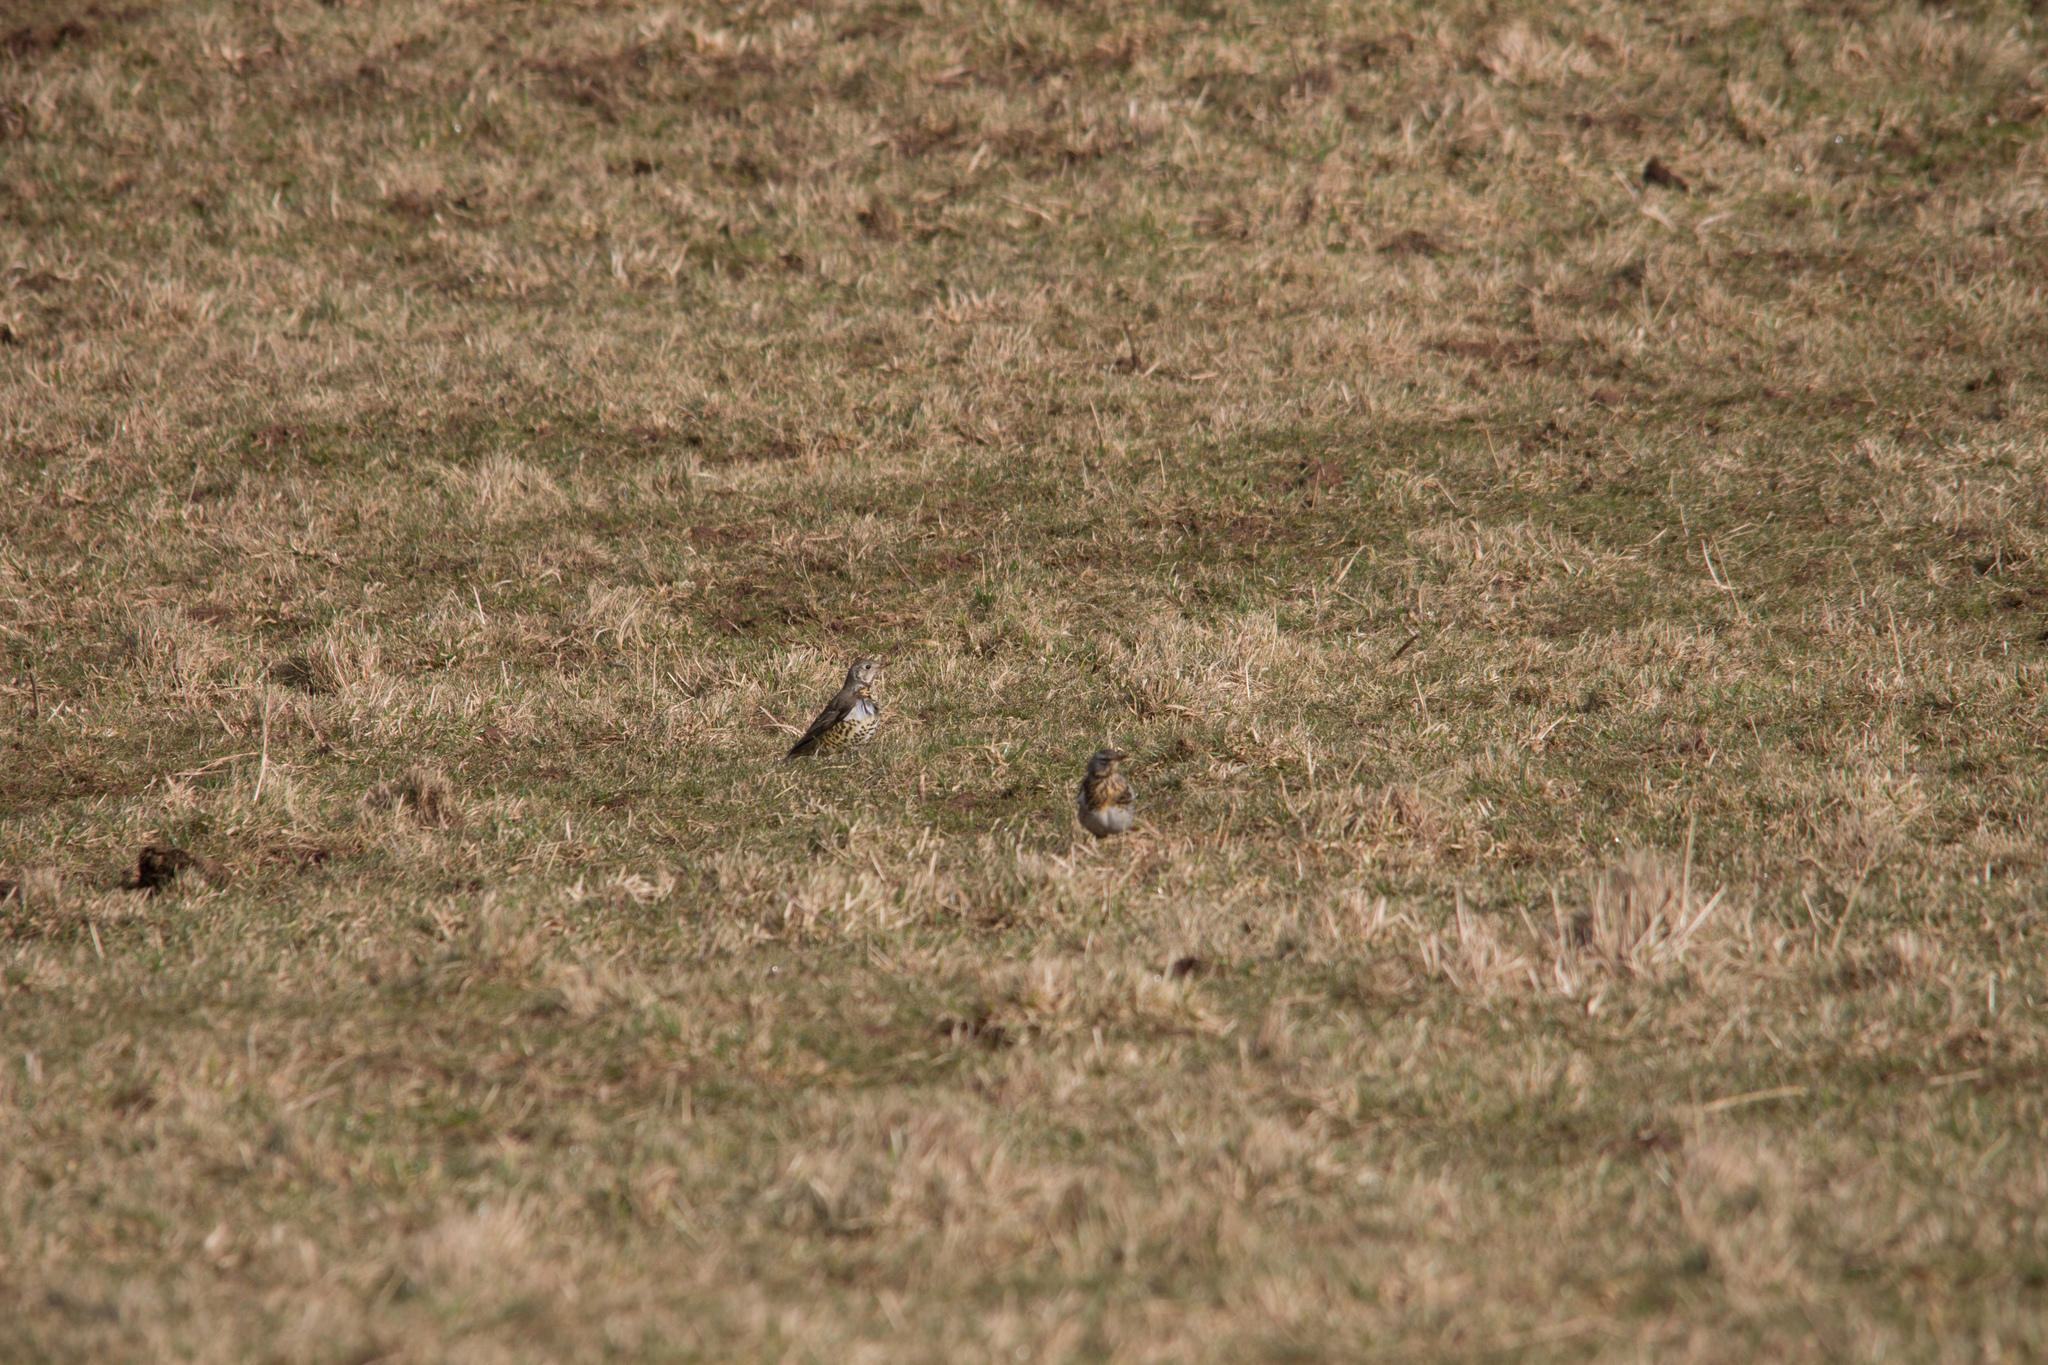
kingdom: Animalia
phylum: Chordata
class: Aves
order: Passeriformes
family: Turdidae
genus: Turdus
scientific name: Turdus viscivorus
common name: Mistle thrush
